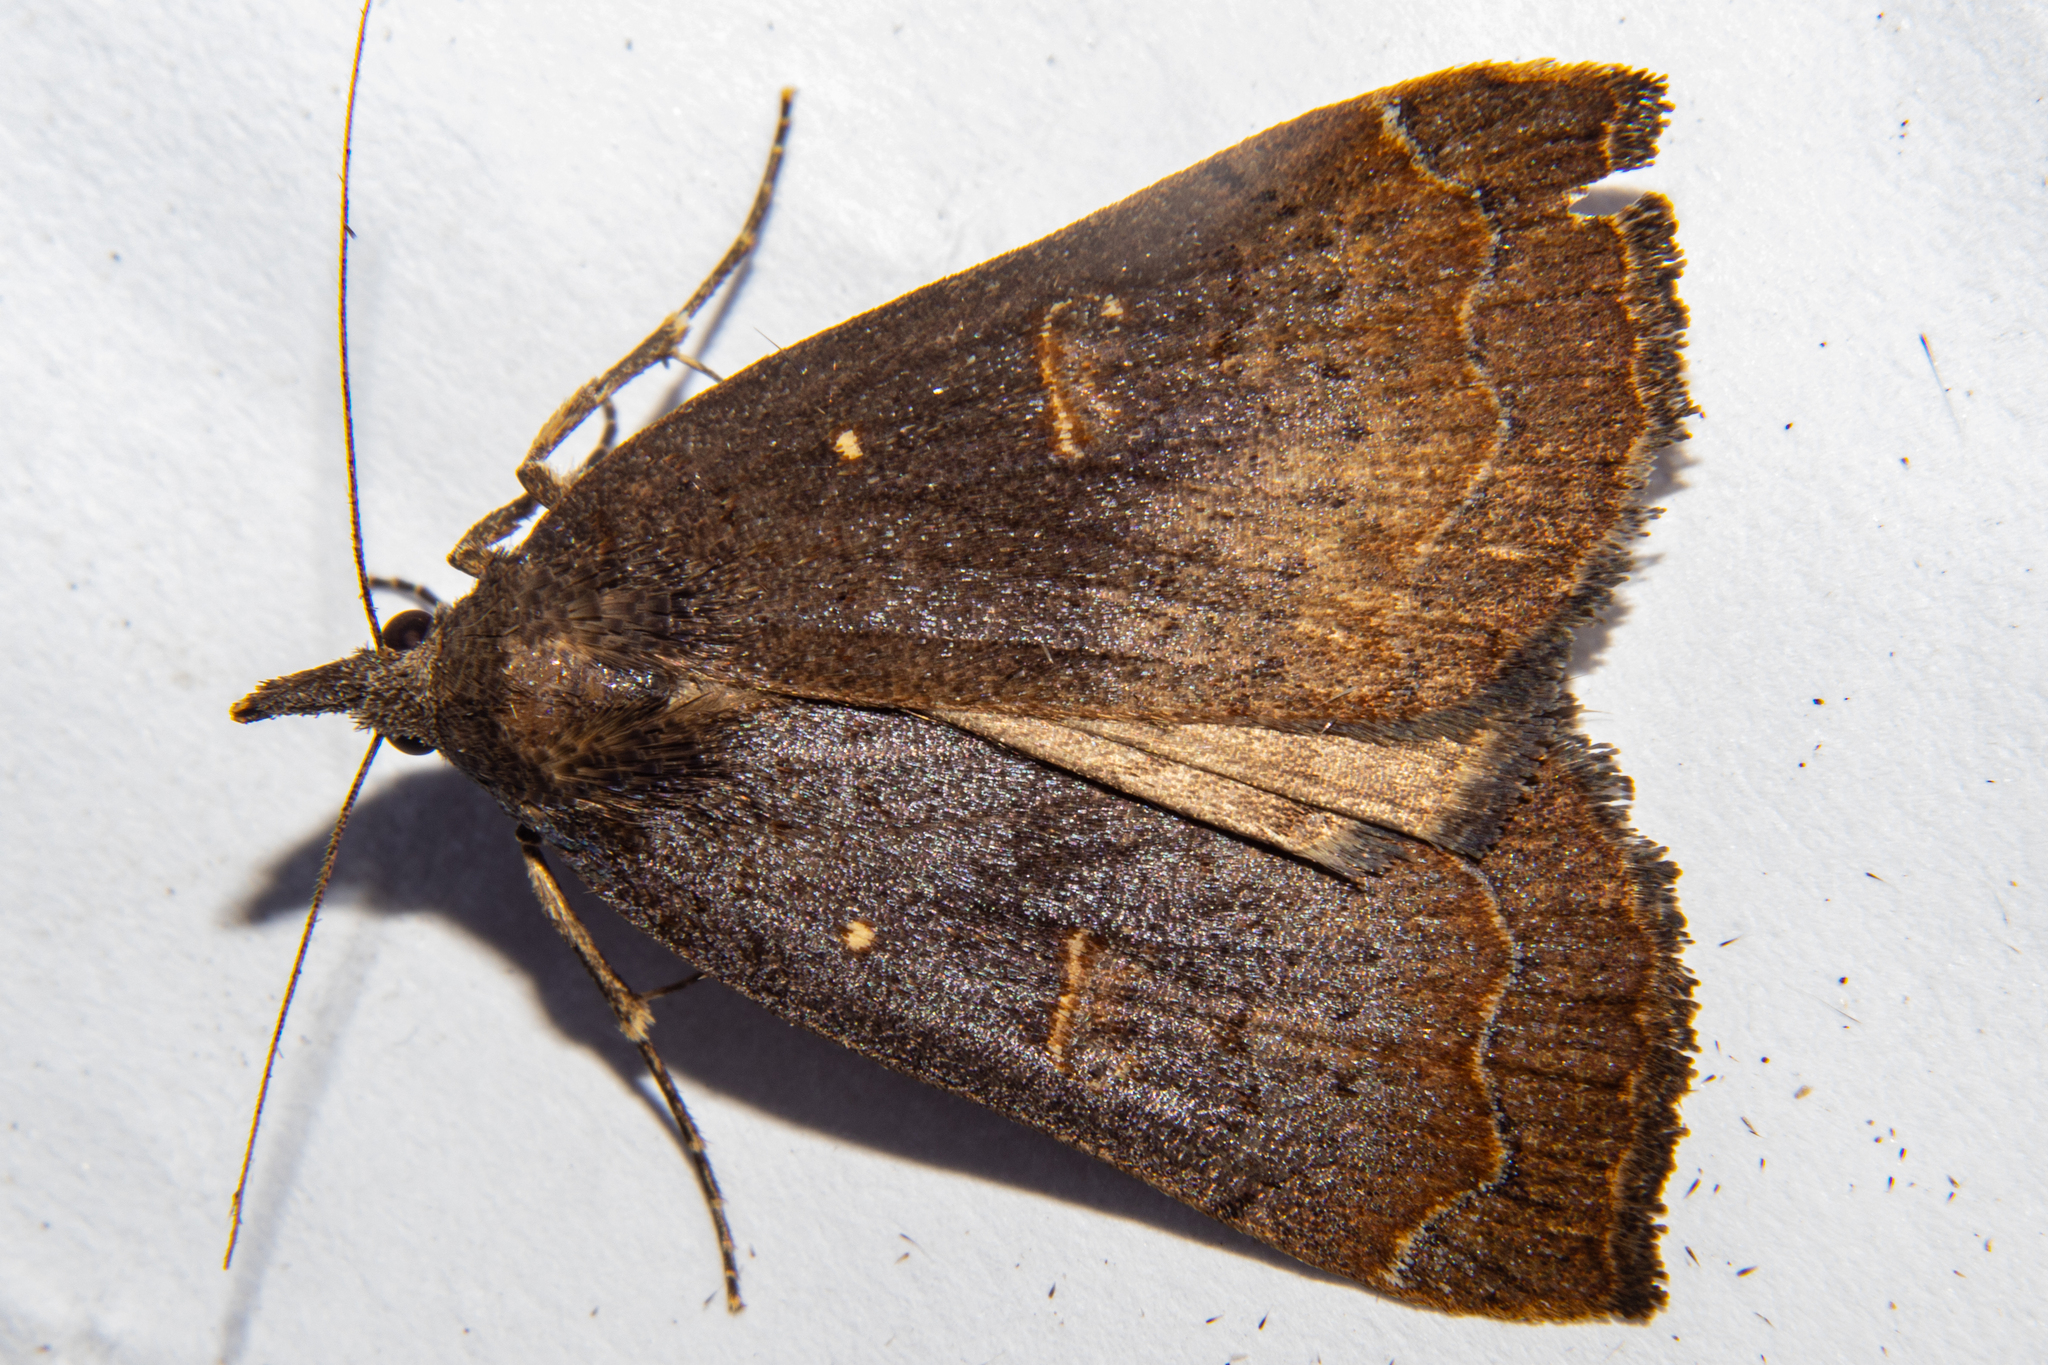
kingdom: Animalia
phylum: Arthropoda
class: Insecta
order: Lepidoptera
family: Erebidae
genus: Rhapsa
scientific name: Rhapsa scotosialis
